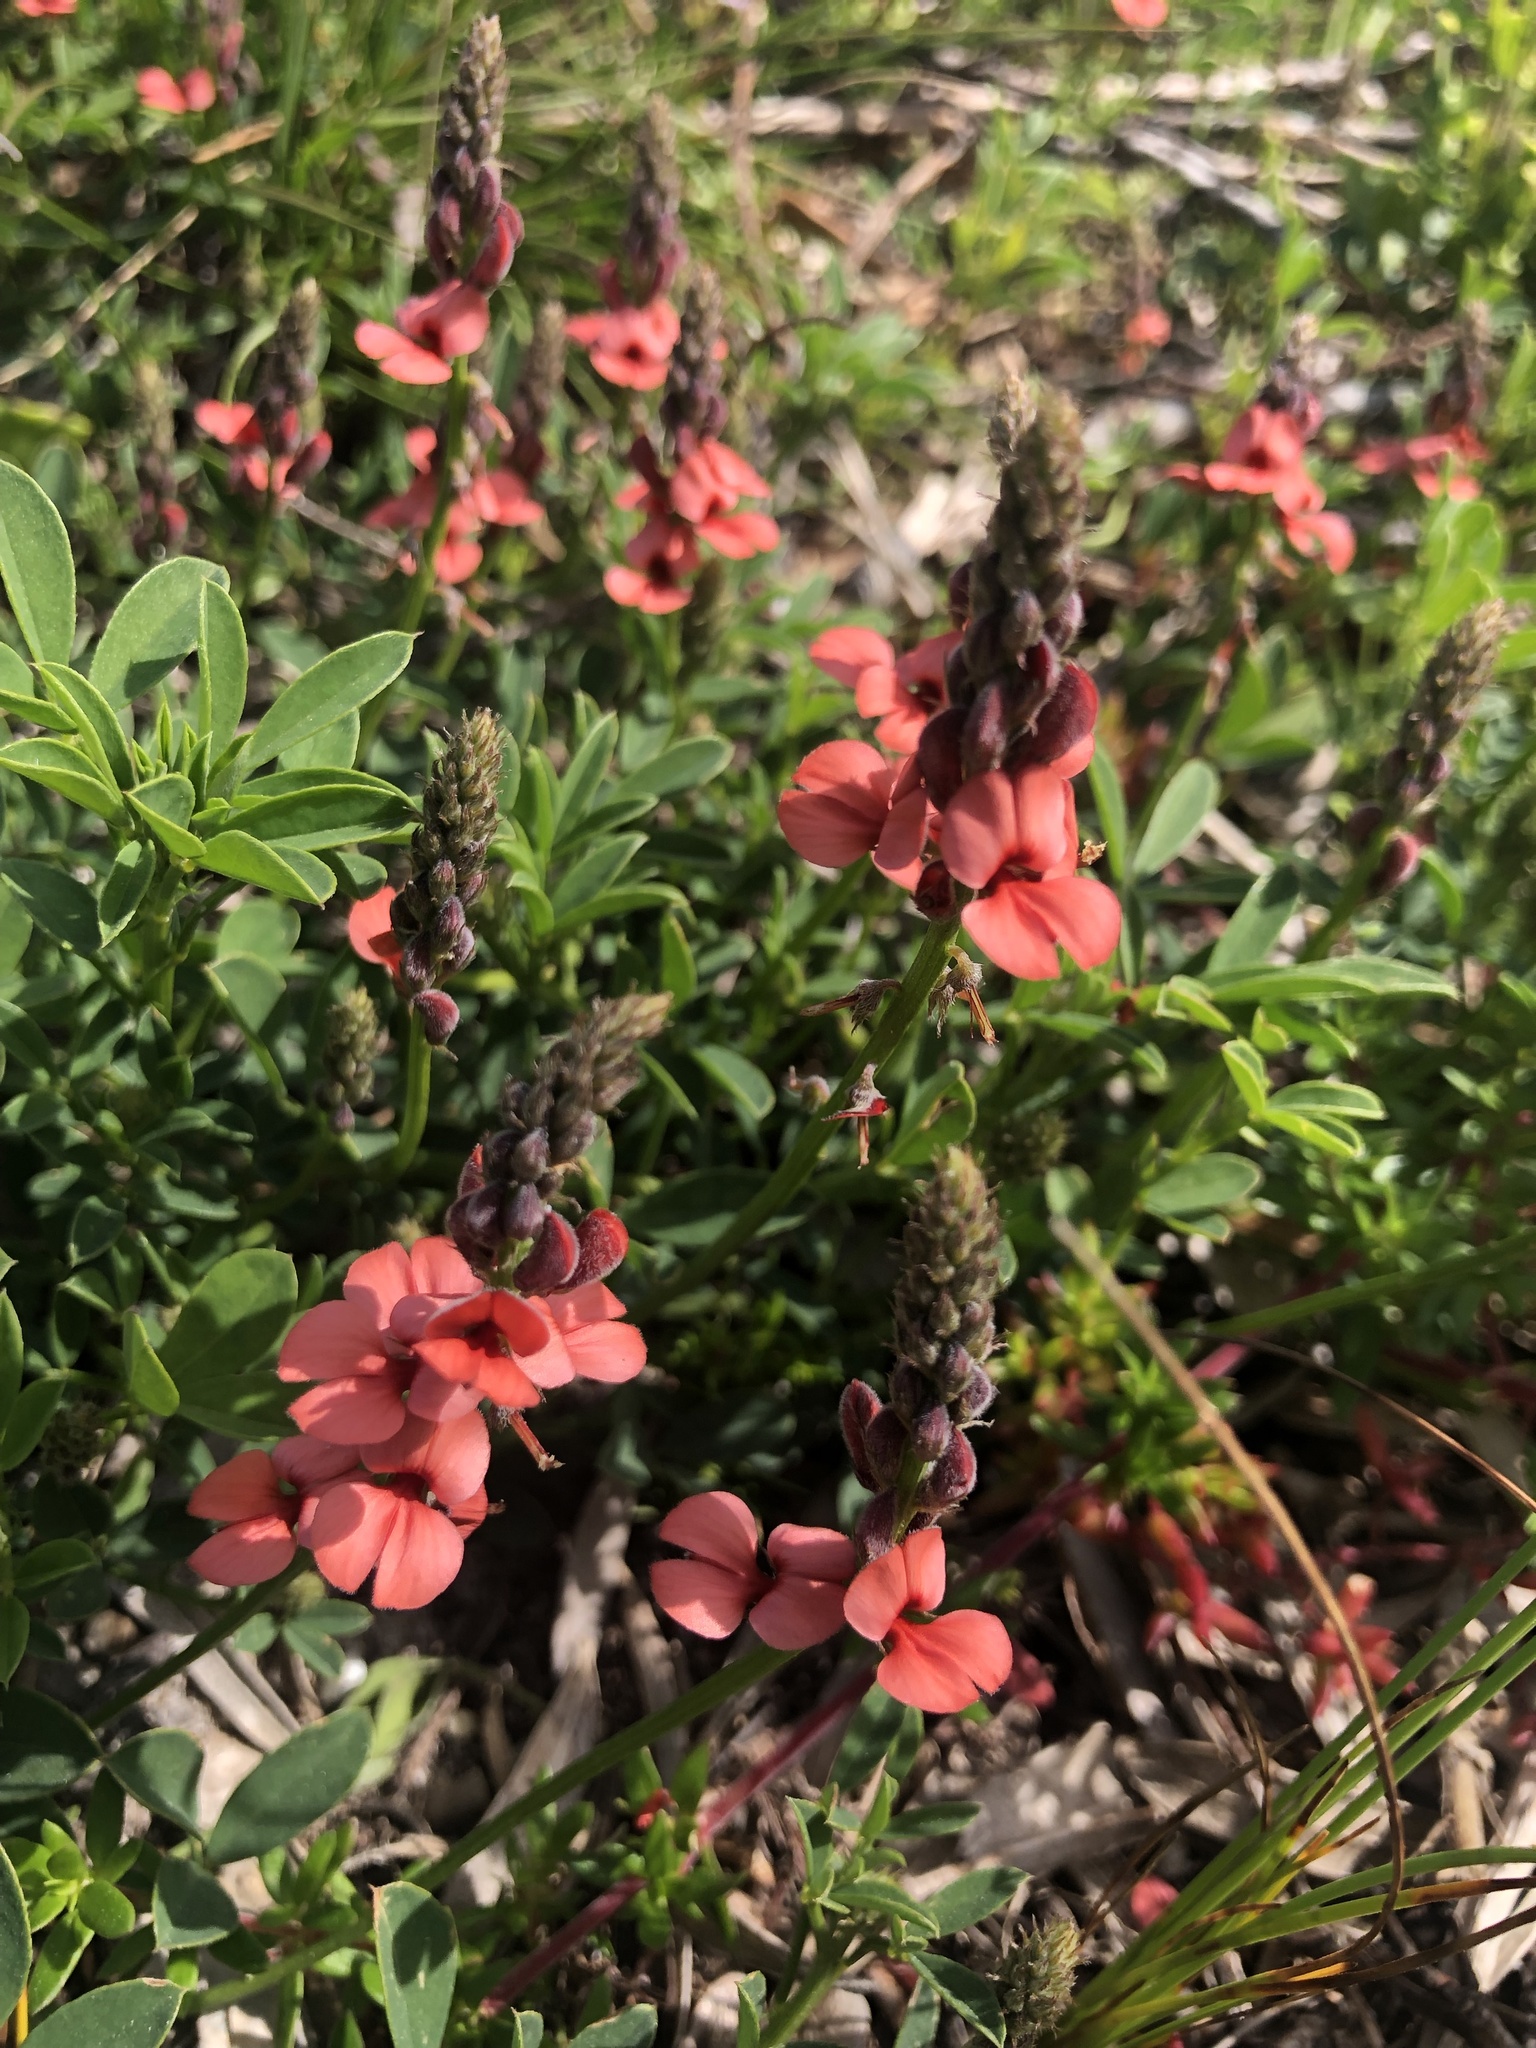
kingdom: Plantae
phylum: Tracheophyta
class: Magnoliopsida
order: Fabales
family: Fabaceae
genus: Indigofera
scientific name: Indigofera heterophylla
